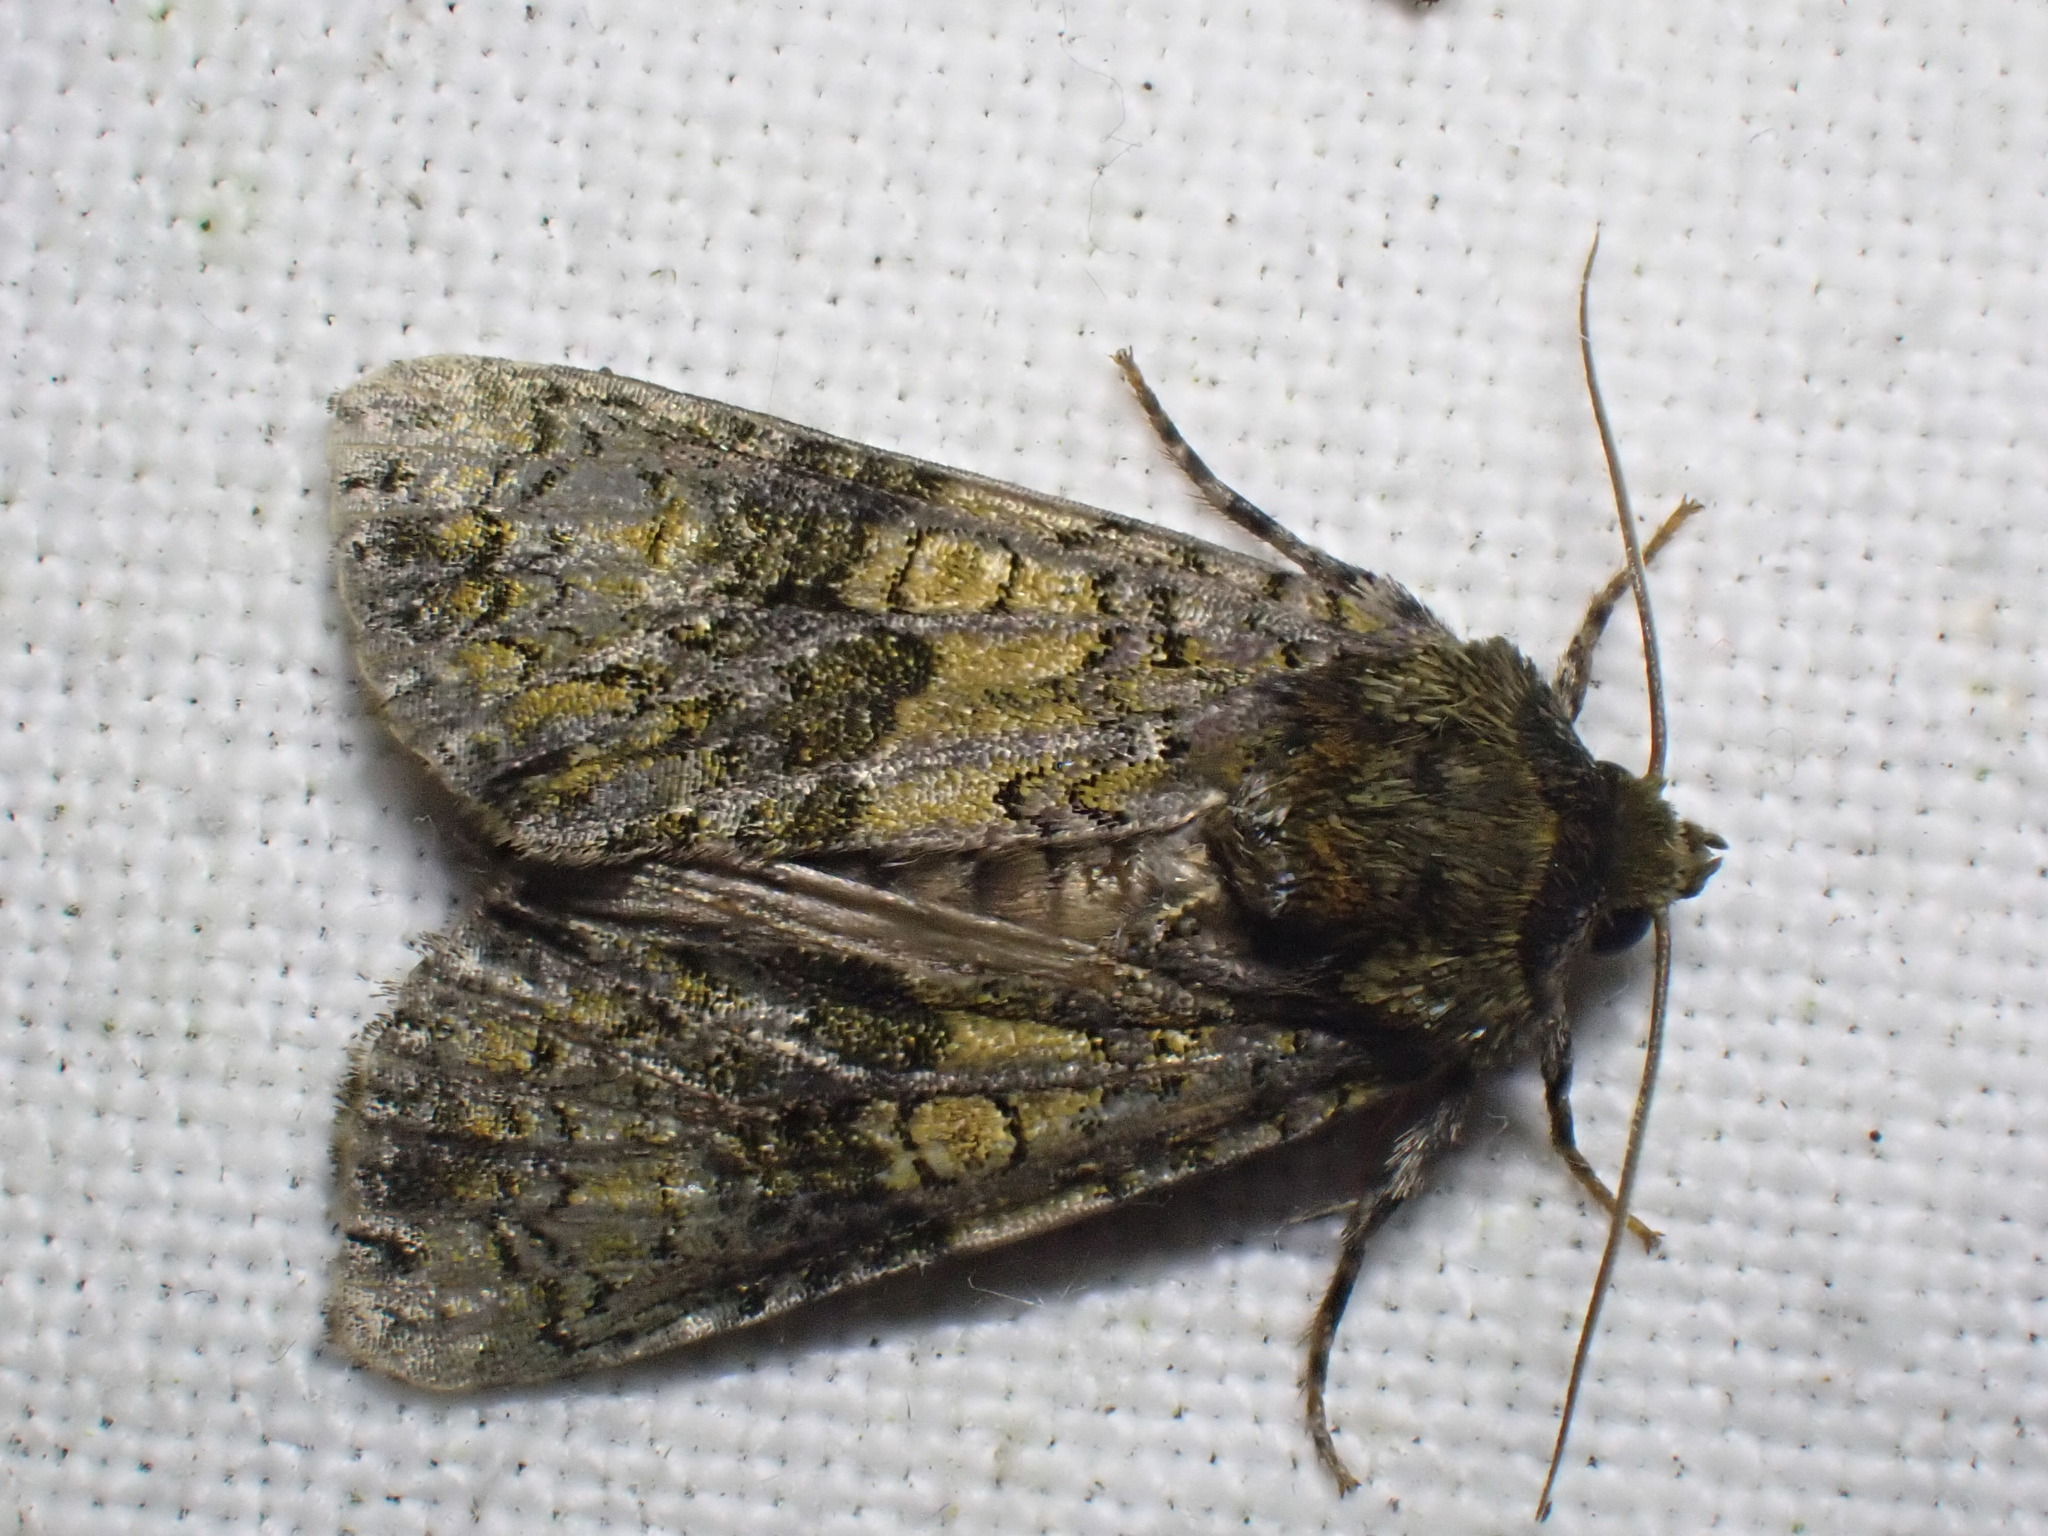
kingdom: Animalia
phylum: Arthropoda
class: Insecta
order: Lepidoptera
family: Noctuidae
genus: Craniophora
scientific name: Craniophora ligustri
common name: Coronet
